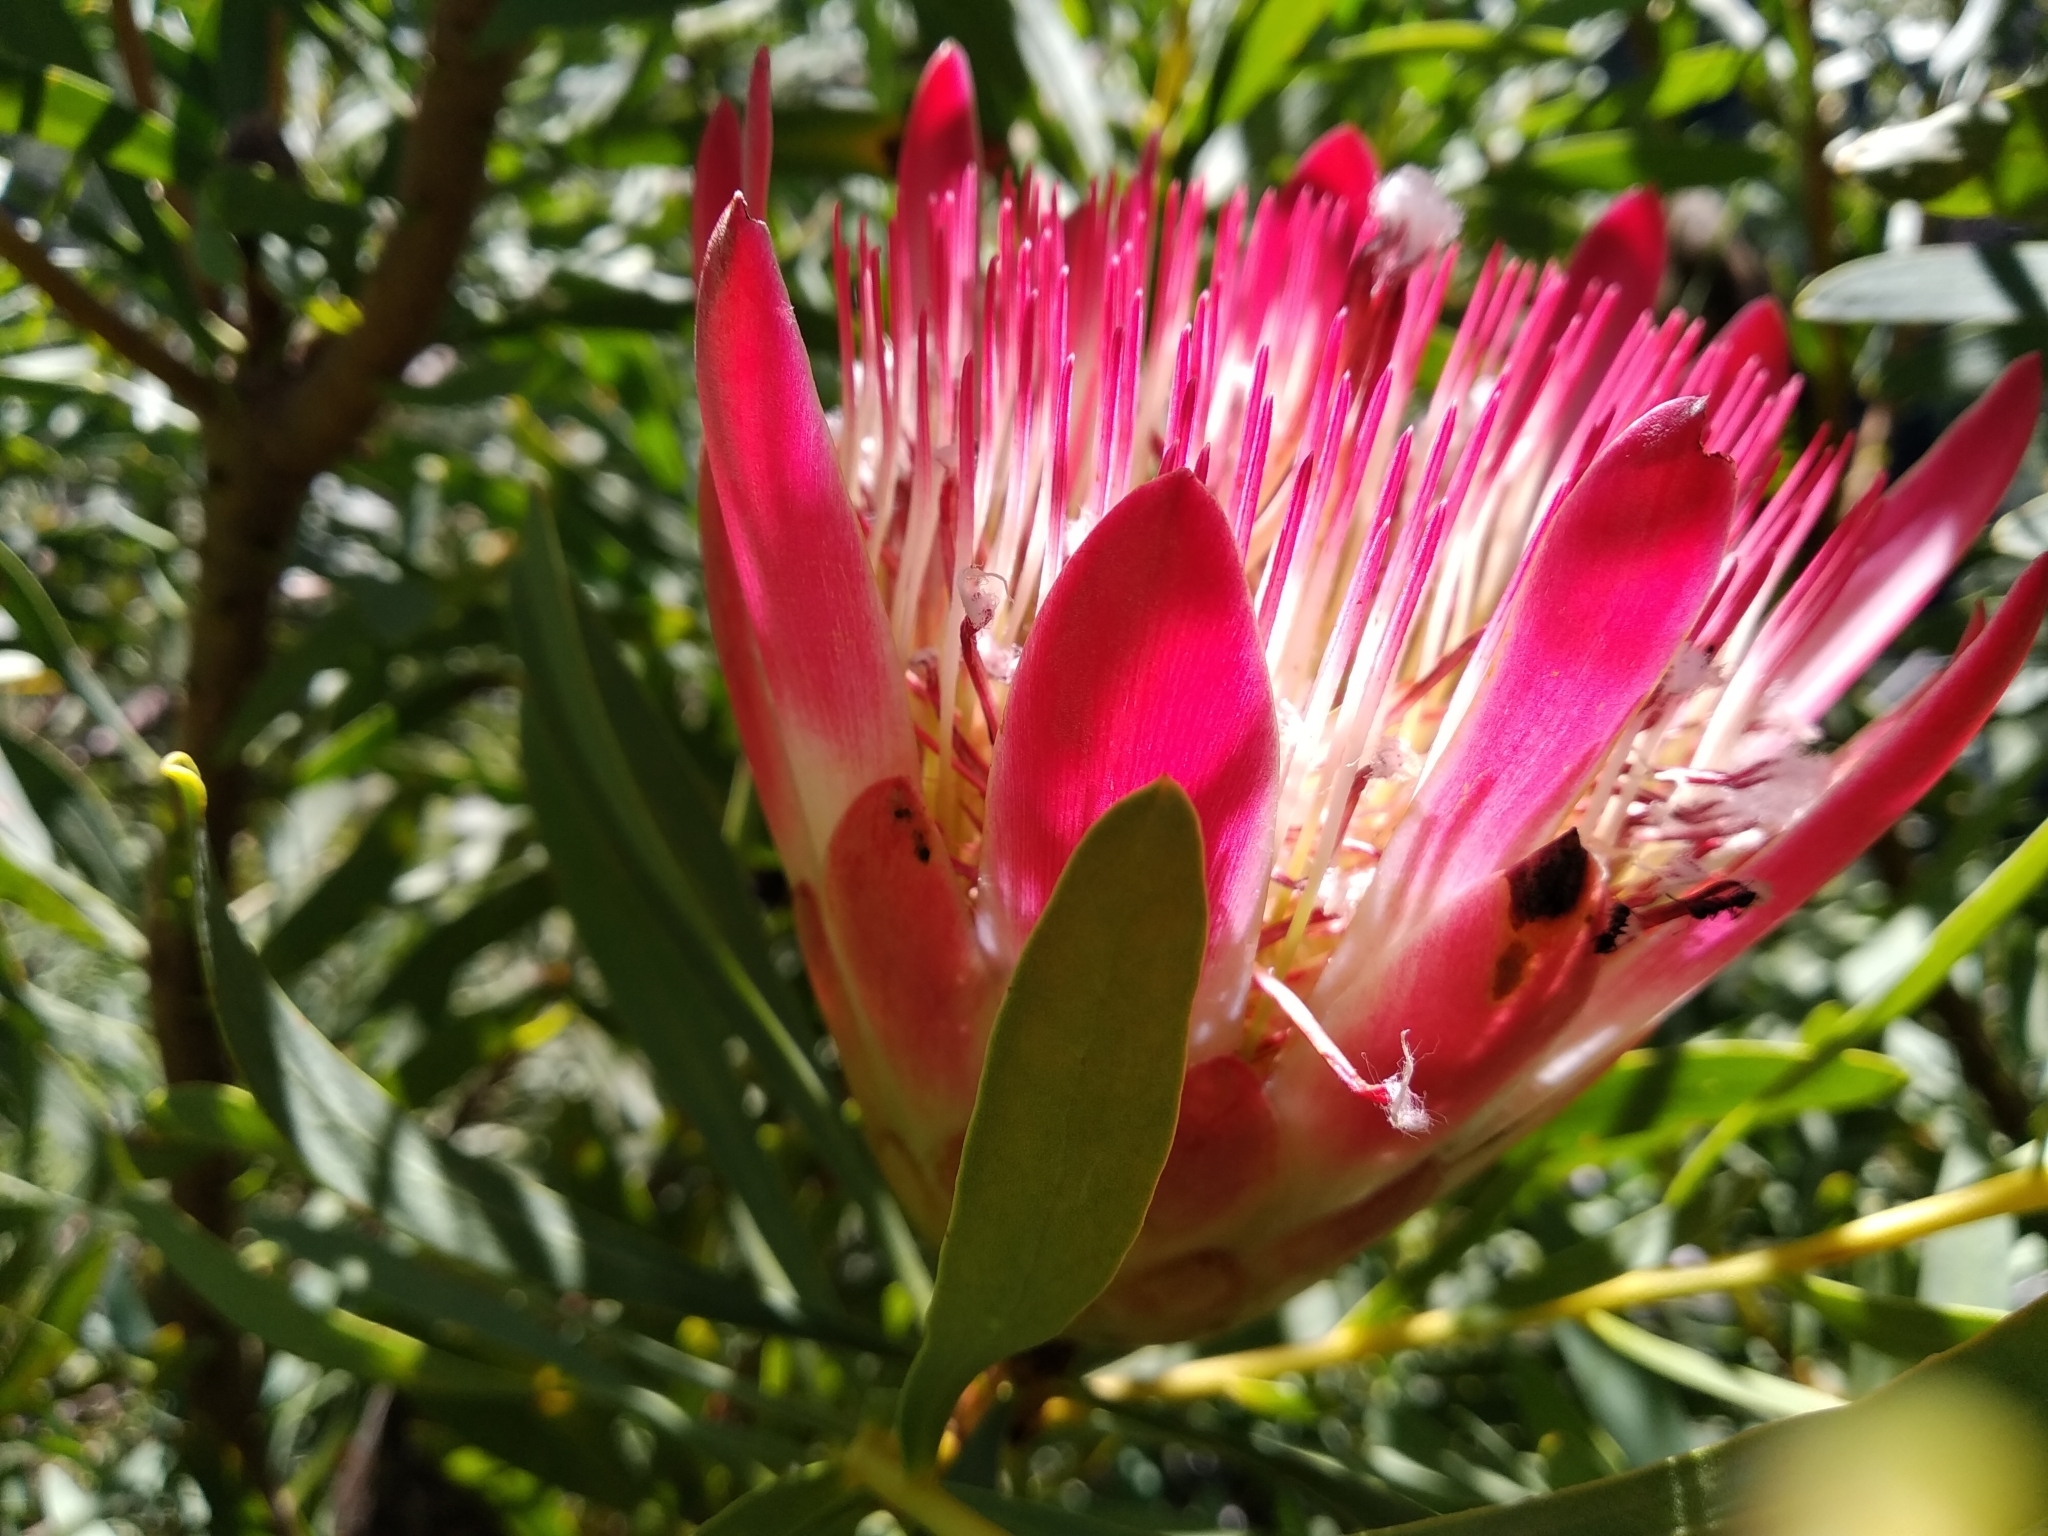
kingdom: Plantae
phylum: Tracheophyta
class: Magnoliopsida
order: Proteales
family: Proteaceae
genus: Protea
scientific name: Protea repens
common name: Sugarbush
